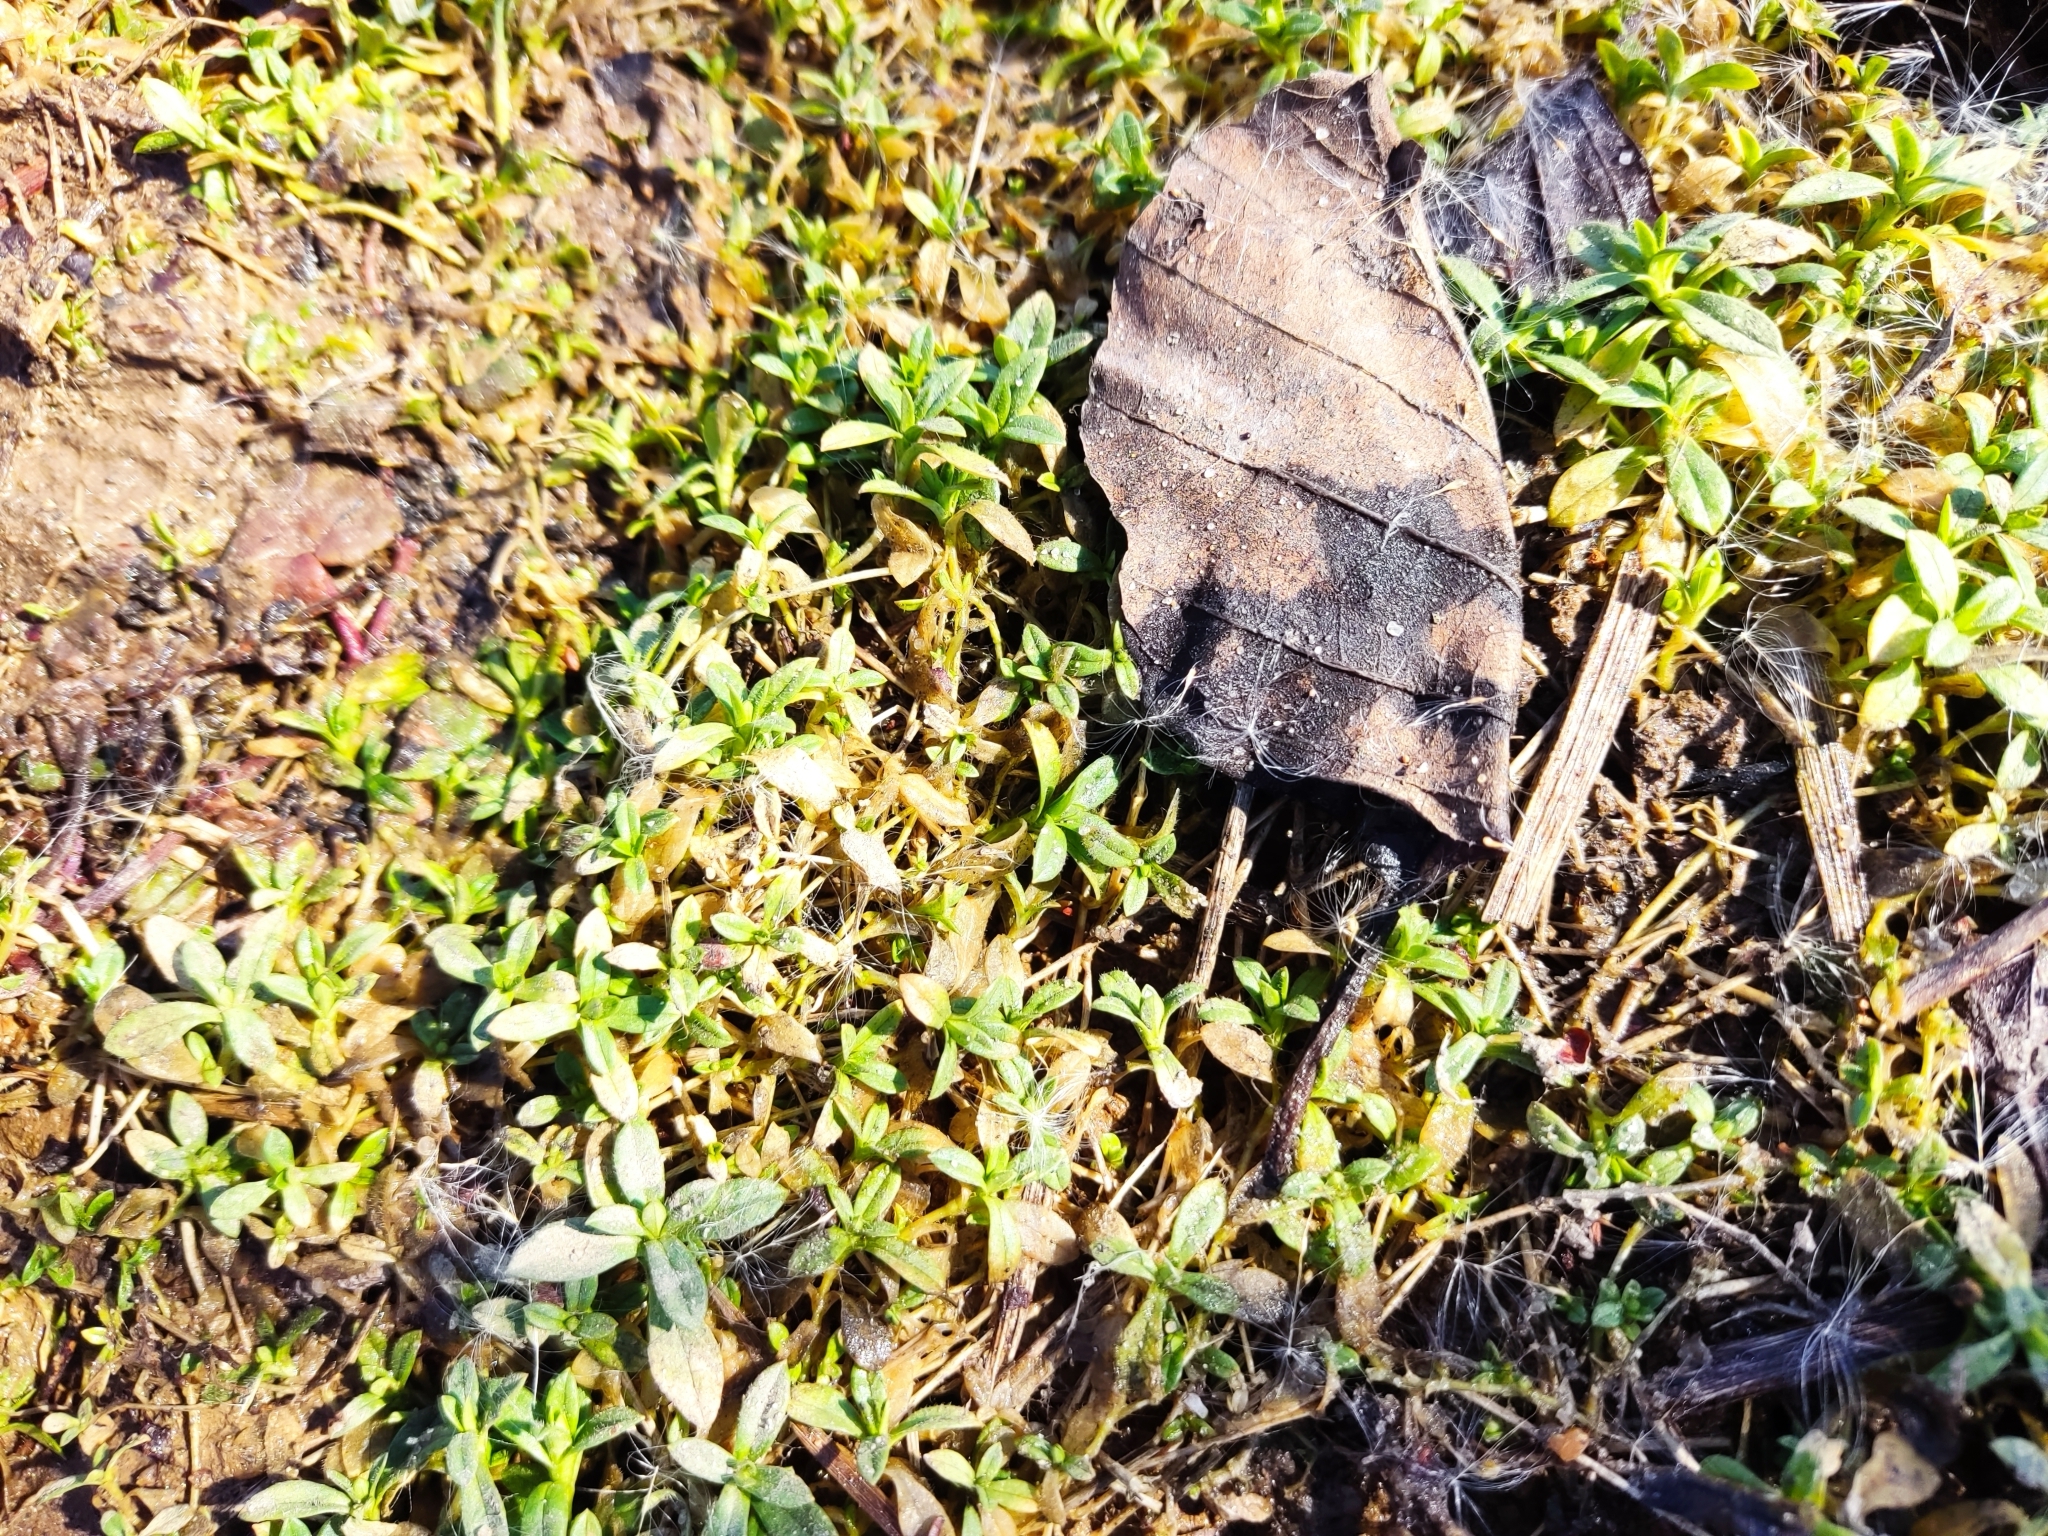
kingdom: Plantae
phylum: Tracheophyta
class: Magnoliopsida
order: Caryophyllales
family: Caryophyllaceae
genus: Cerastium
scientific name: Cerastium holosteoides
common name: Big chickweed
